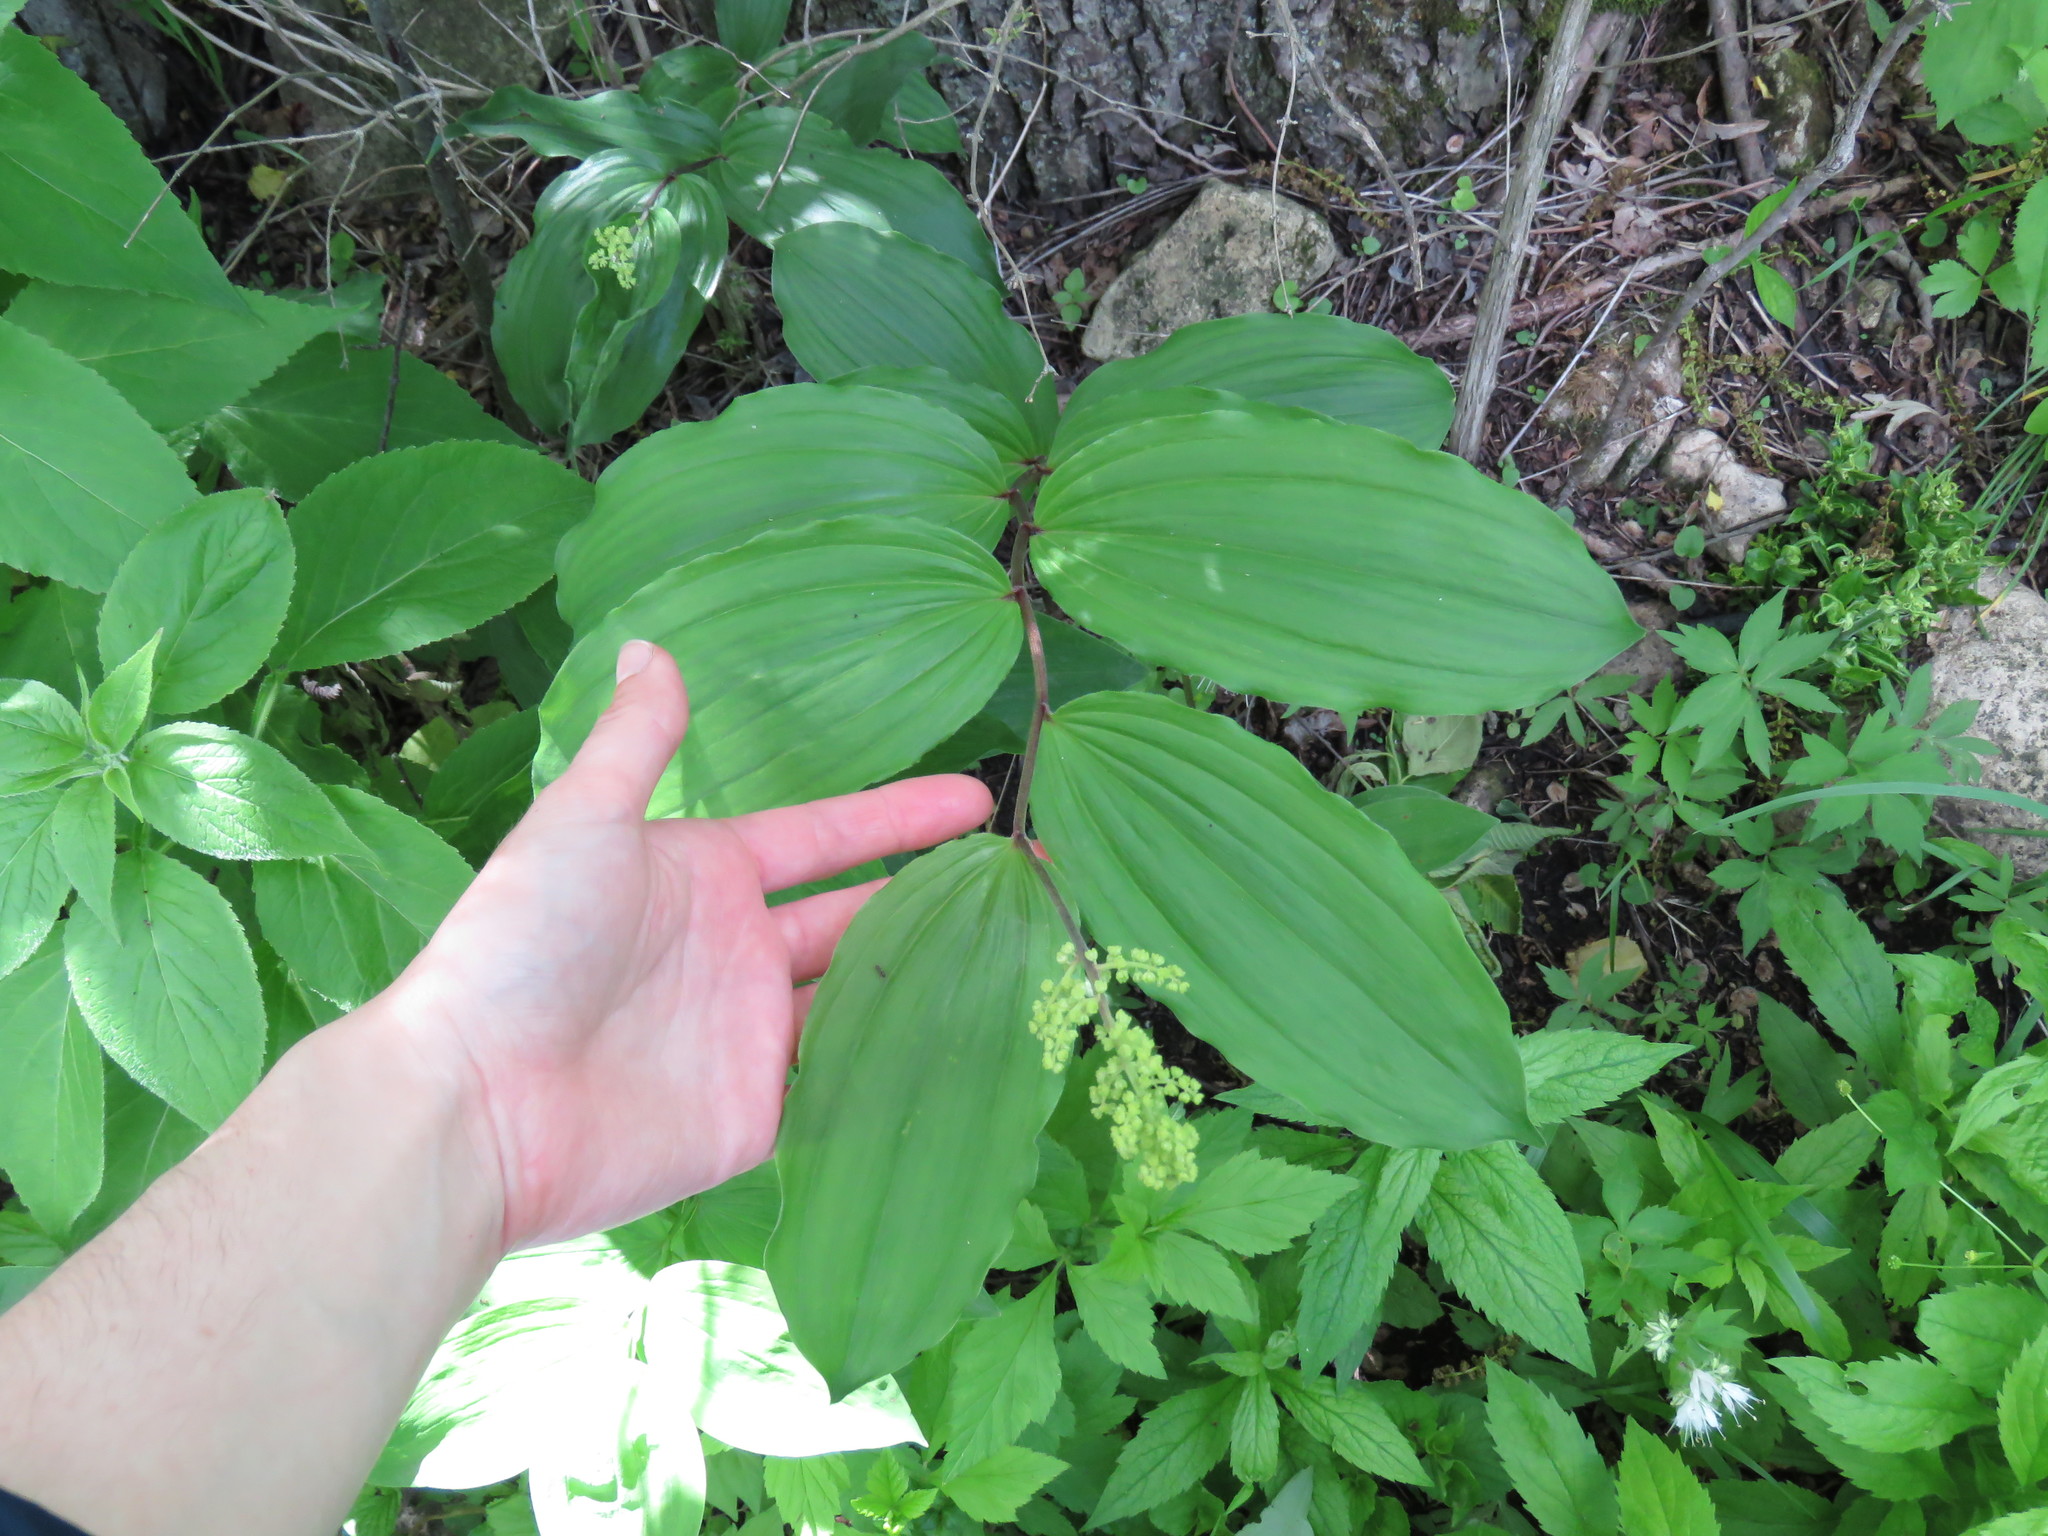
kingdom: Plantae
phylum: Tracheophyta
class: Liliopsida
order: Asparagales
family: Asparagaceae
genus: Maianthemum
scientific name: Maianthemum racemosum
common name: False spikenard
